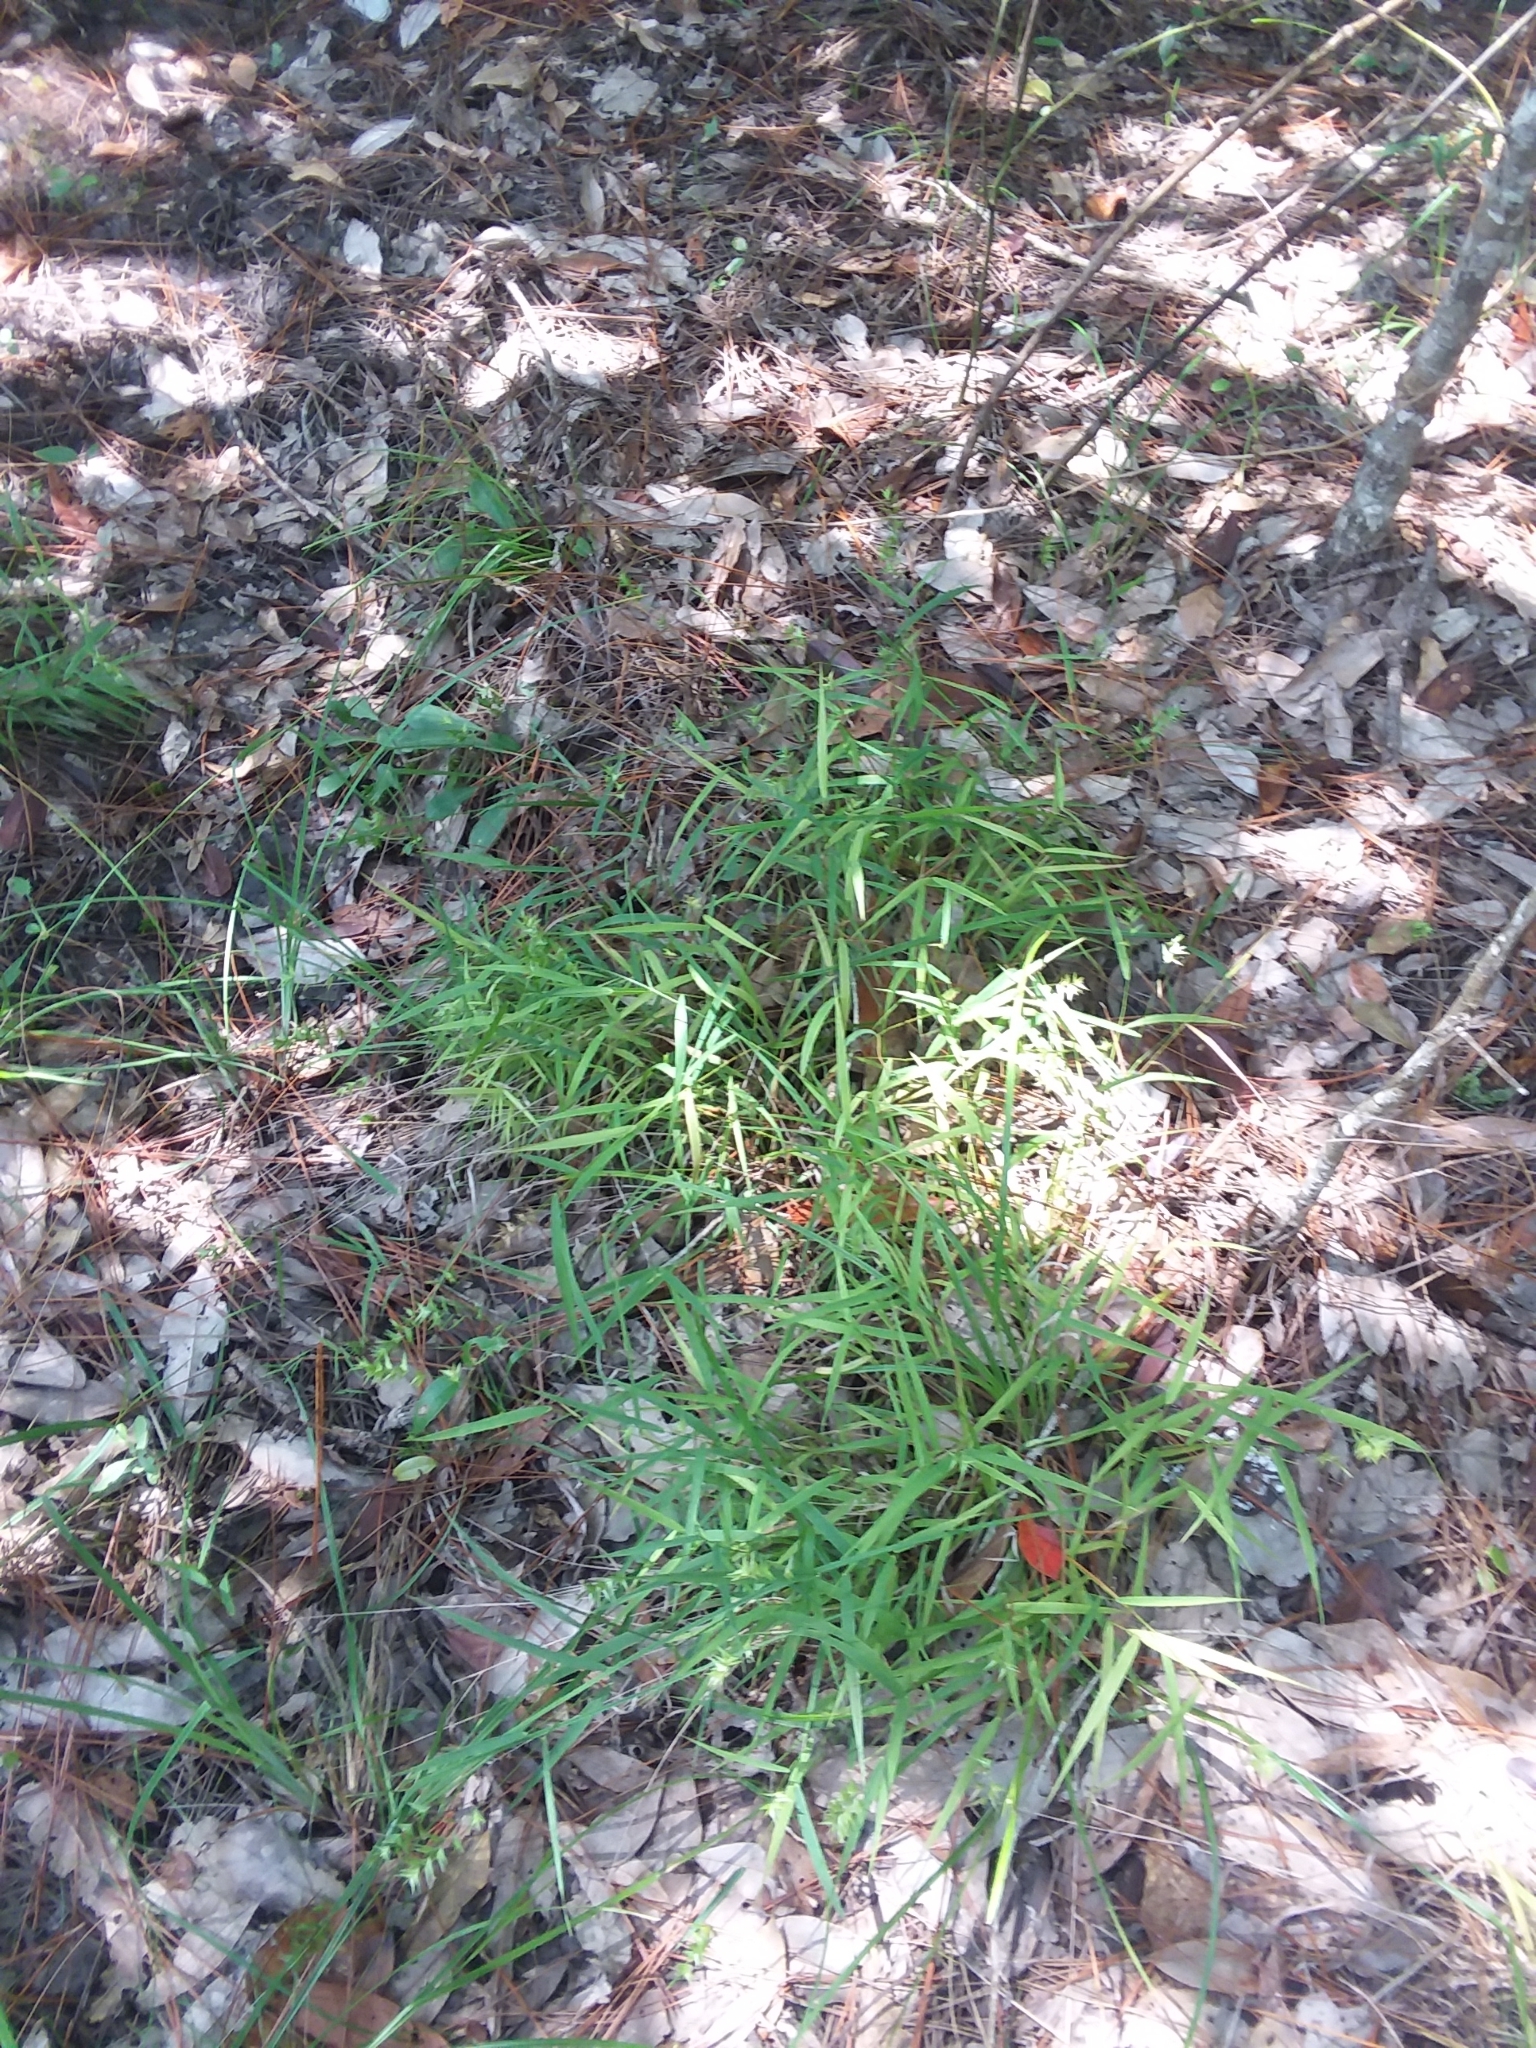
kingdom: Plantae
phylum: Tracheophyta
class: Liliopsida
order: Poales
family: Poaceae
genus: Chasmanthium
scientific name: Chasmanthium ornithorhynchum
